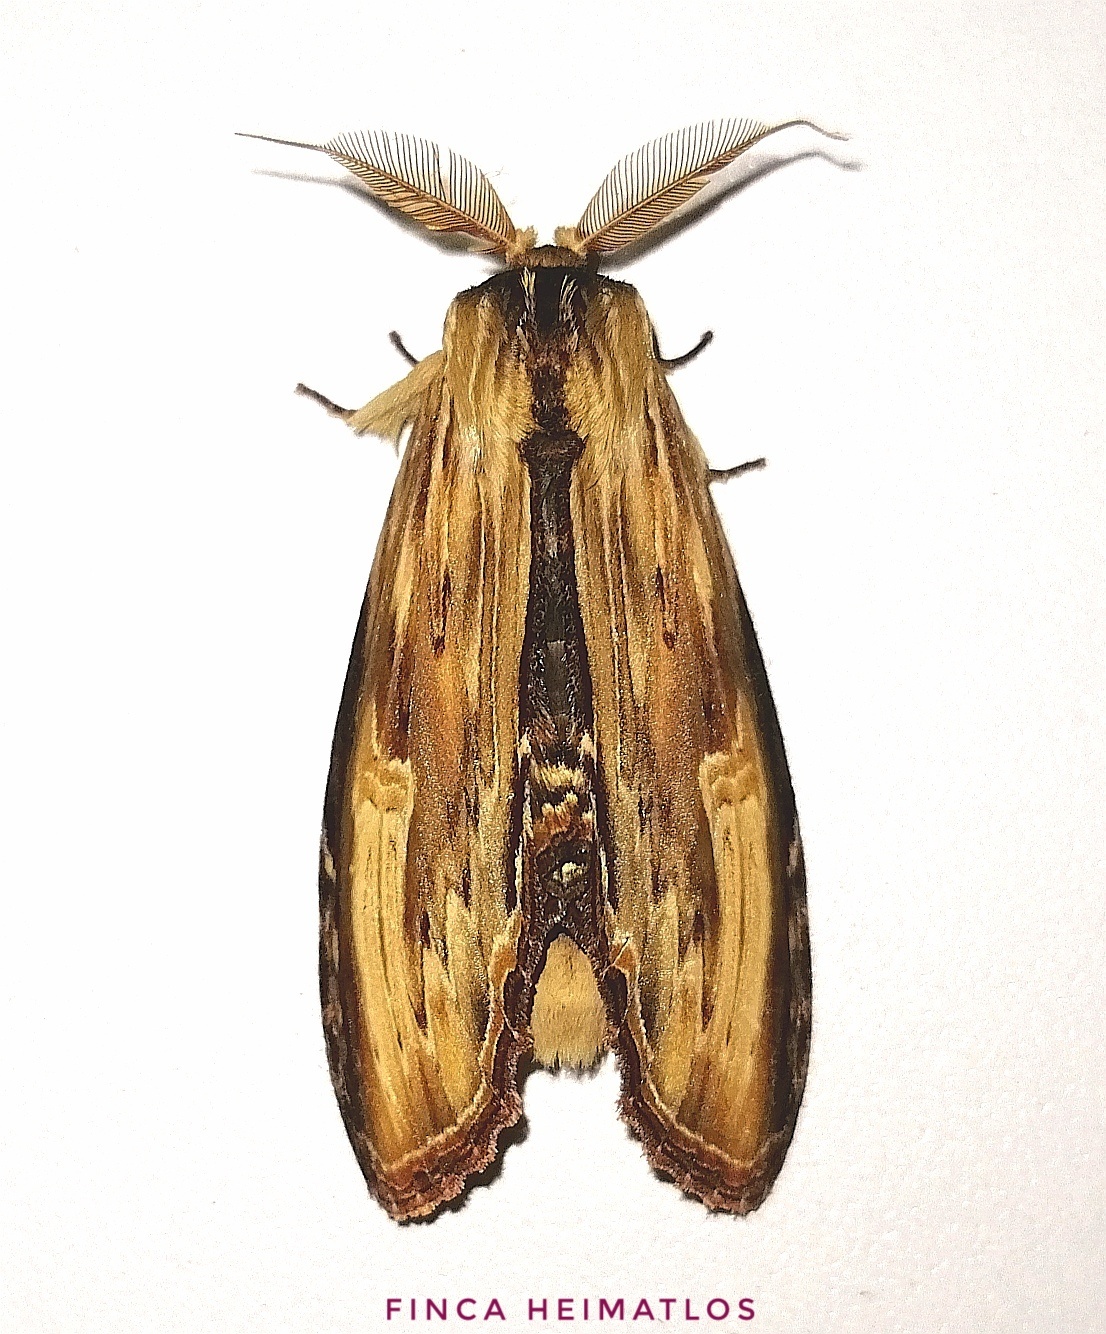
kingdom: Animalia
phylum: Arthropoda
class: Insecta
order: Lepidoptera
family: Notodontidae
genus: Truncaptera
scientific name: Truncaptera
